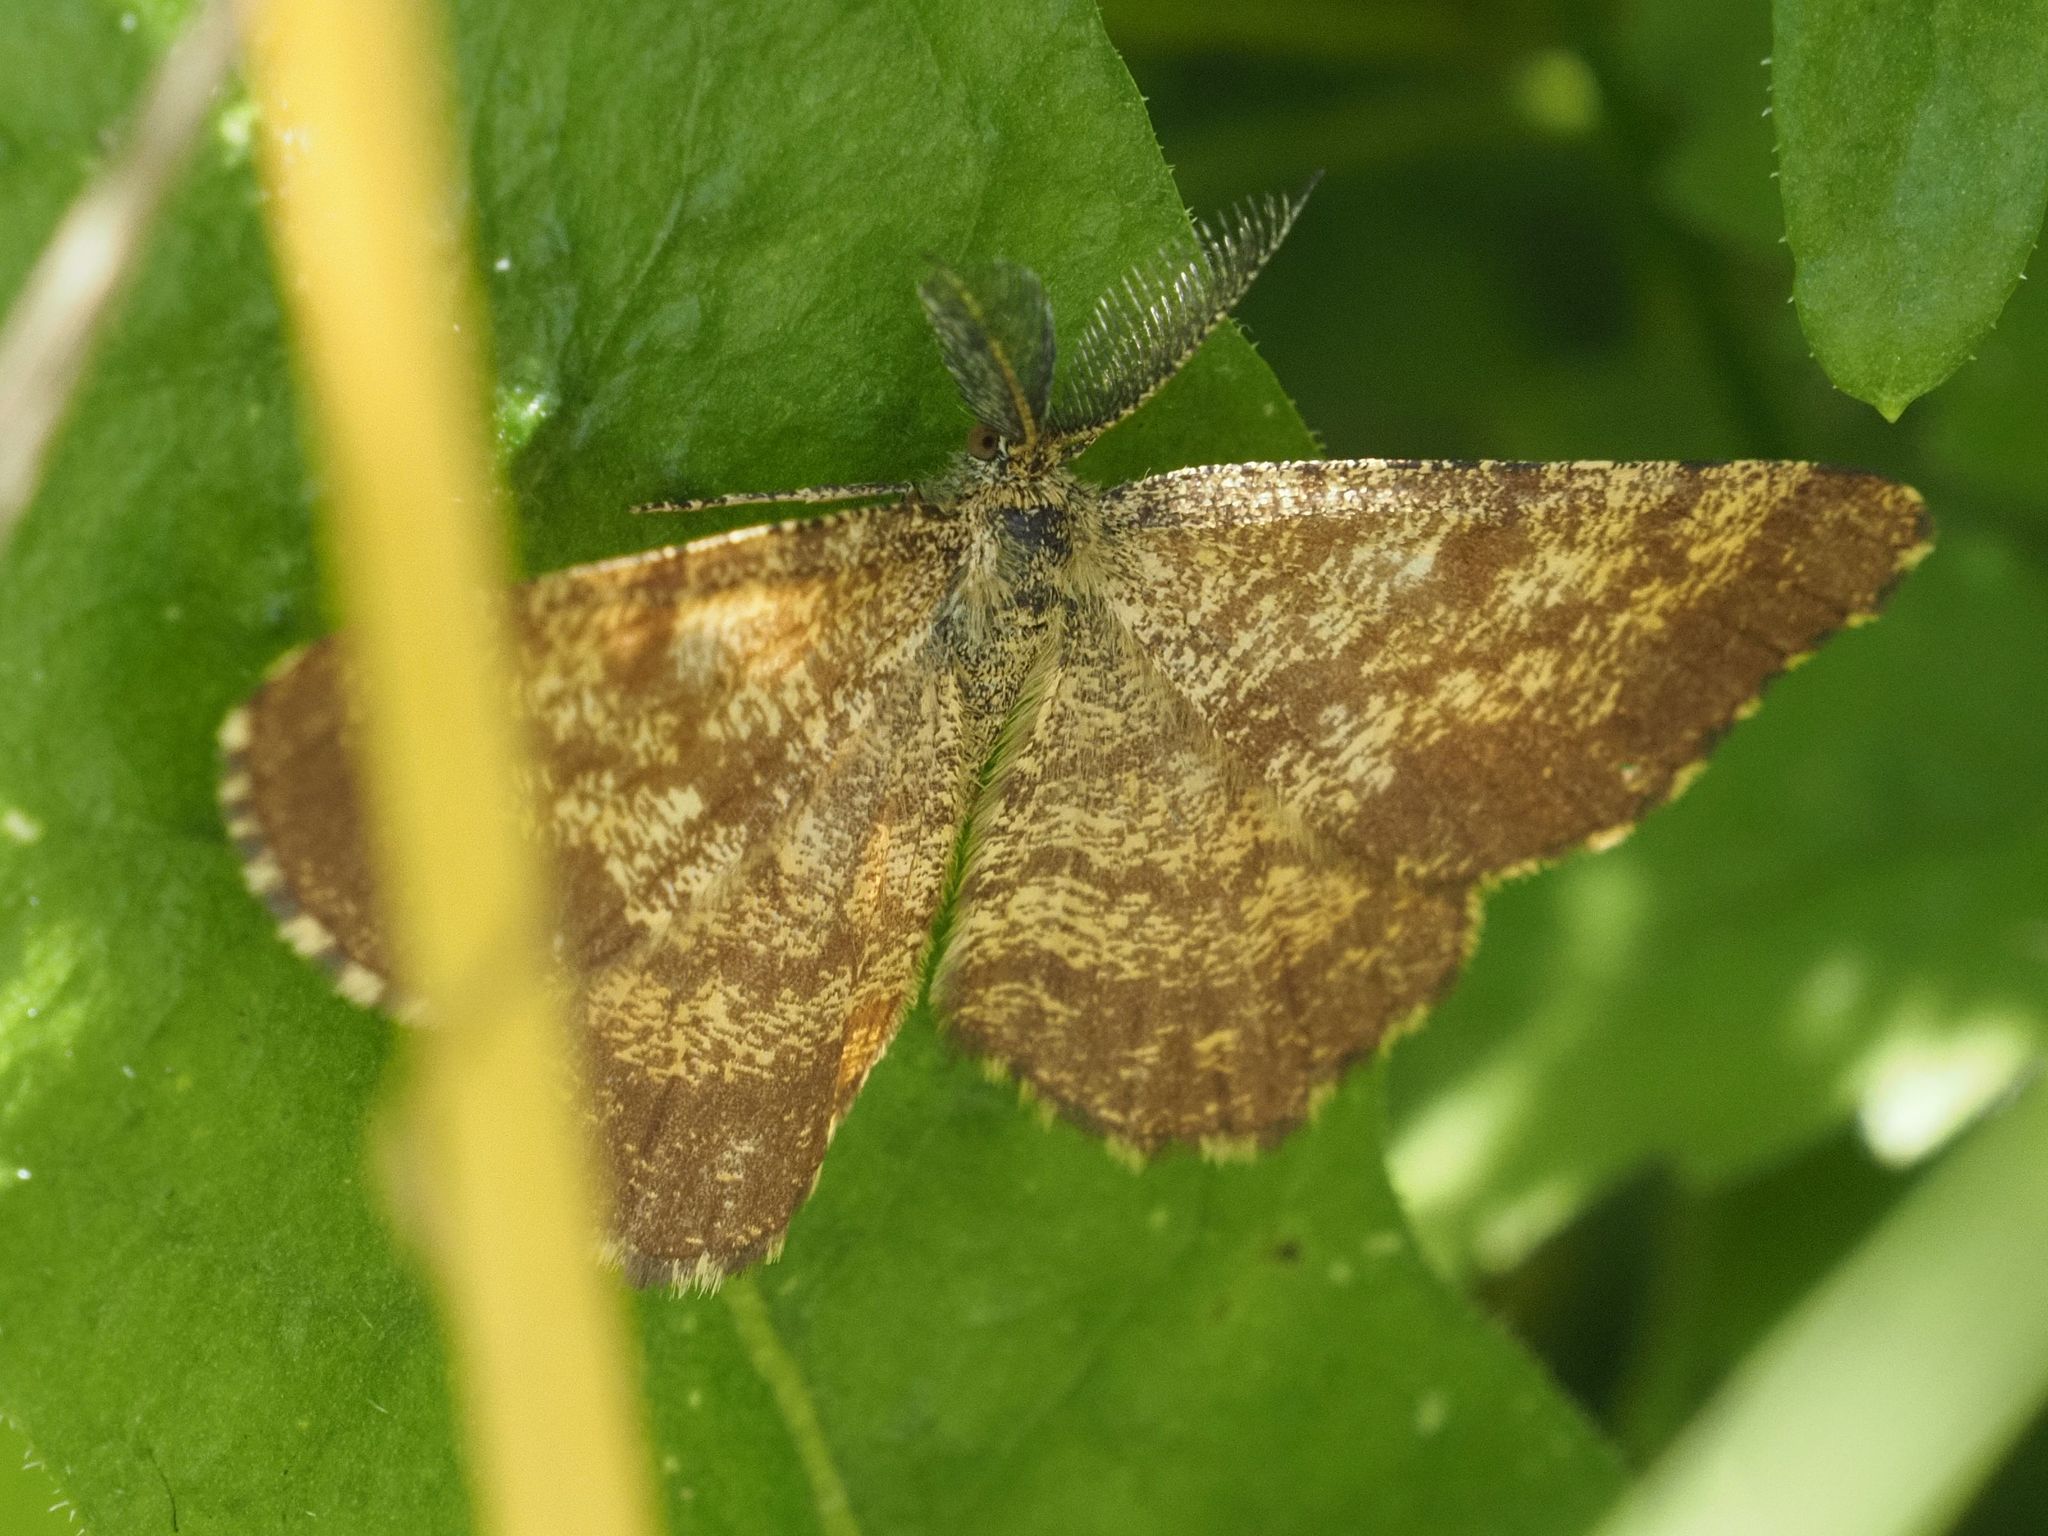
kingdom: Animalia
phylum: Arthropoda
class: Insecta
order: Lepidoptera
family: Geometridae
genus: Ematurga
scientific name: Ematurga atomaria
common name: Common heath
